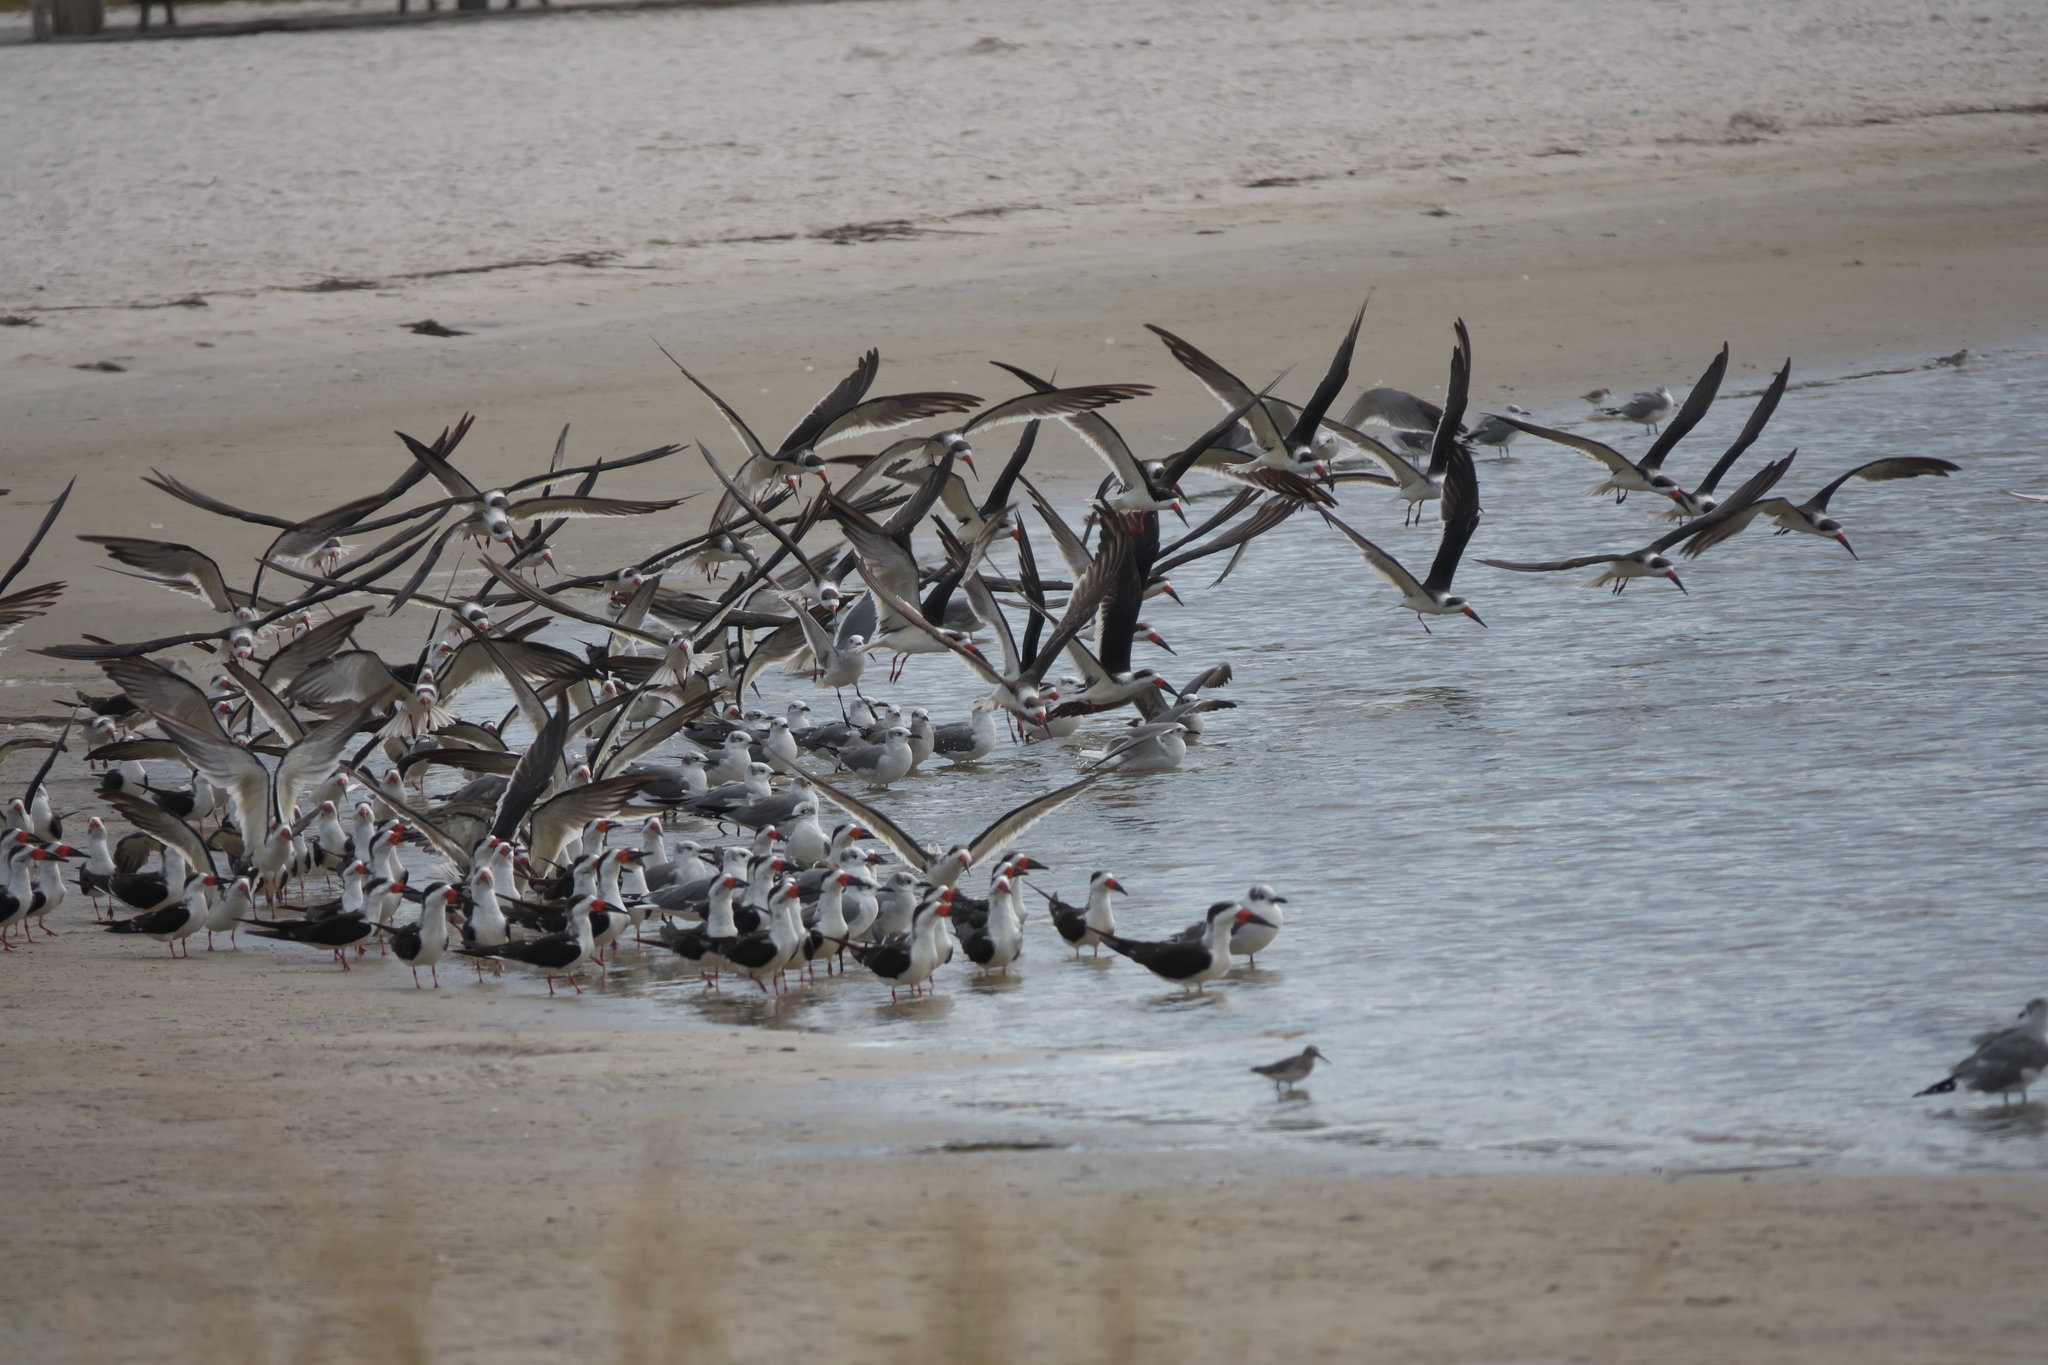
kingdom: Animalia
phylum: Chordata
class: Aves
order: Charadriiformes
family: Laridae
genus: Rynchops
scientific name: Rynchops niger
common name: Black skimmer
